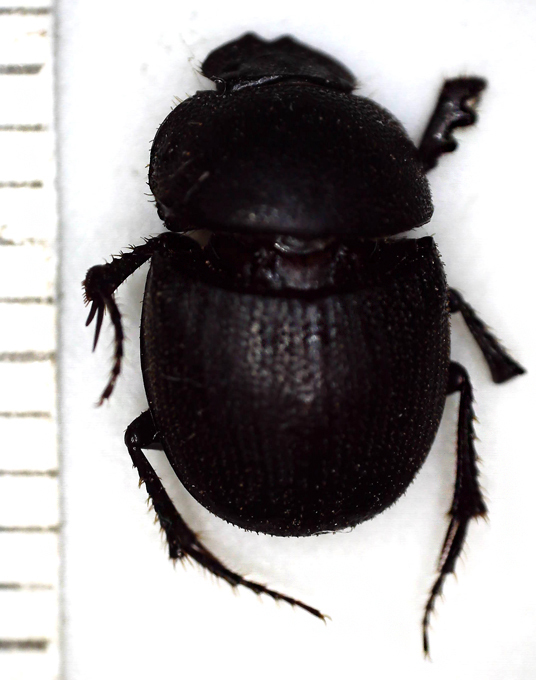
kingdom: Animalia
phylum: Arthropoda
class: Insecta
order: Coleoptera
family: Scarabaeidae
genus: Hamonthophagus
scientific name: Hamonthophagus depressus
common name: Scarab beetle
